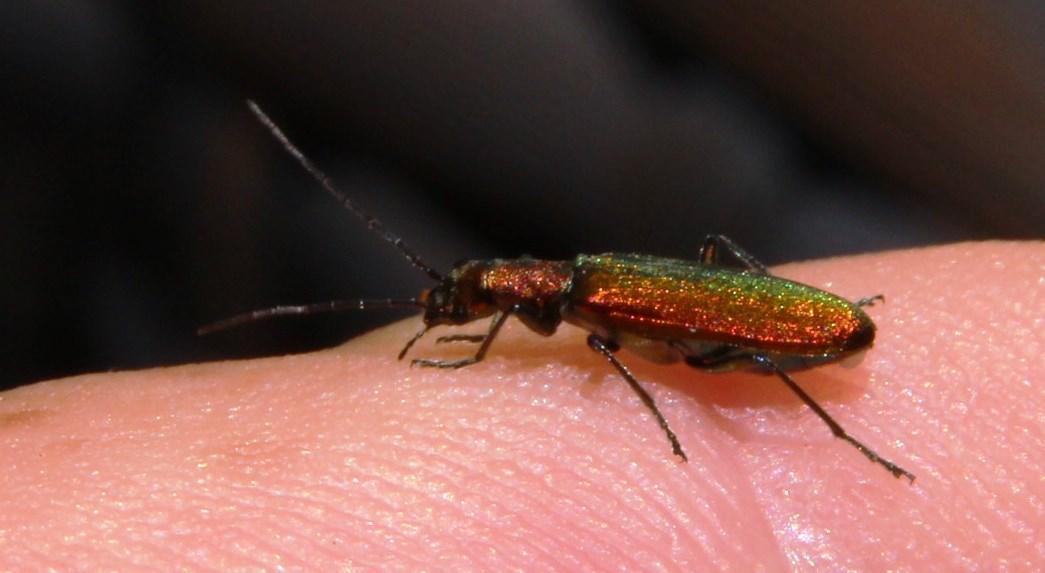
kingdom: Animalia
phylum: Arthropoda
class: Insecta
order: Coleoptera
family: Oedemeridae
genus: Chrysanthia
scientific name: Chrysanthia reitteri
